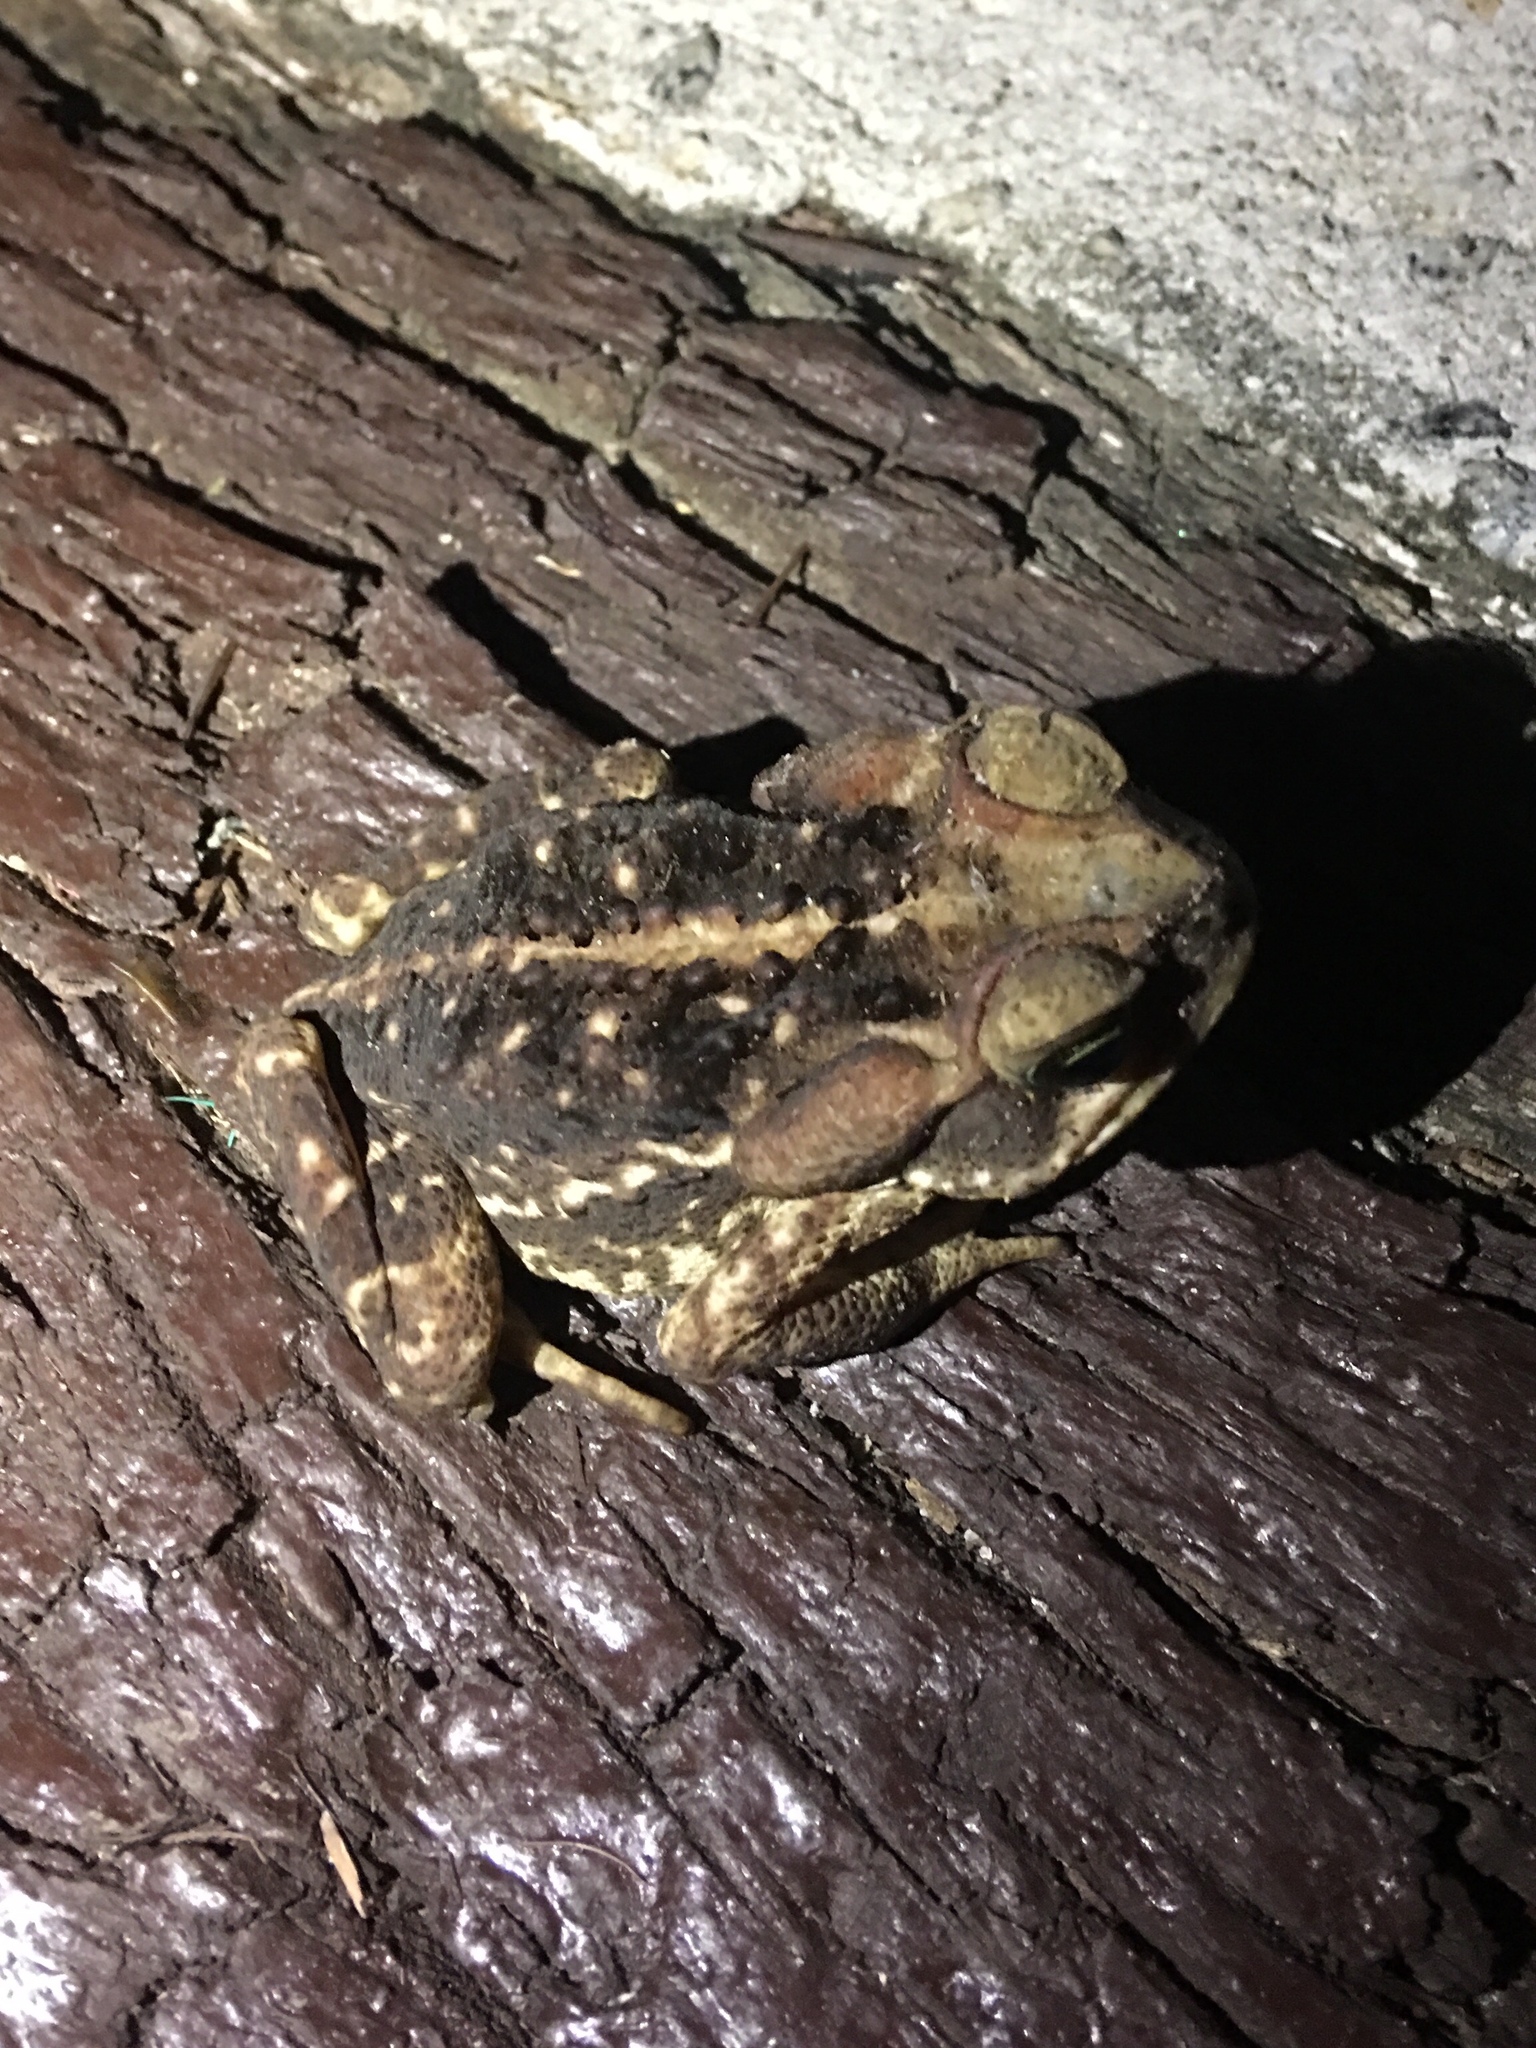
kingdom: Animalia
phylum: Chordata
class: Amphibia
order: Anura
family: Bufonidae
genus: Rhinella
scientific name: Rhinella icterica
